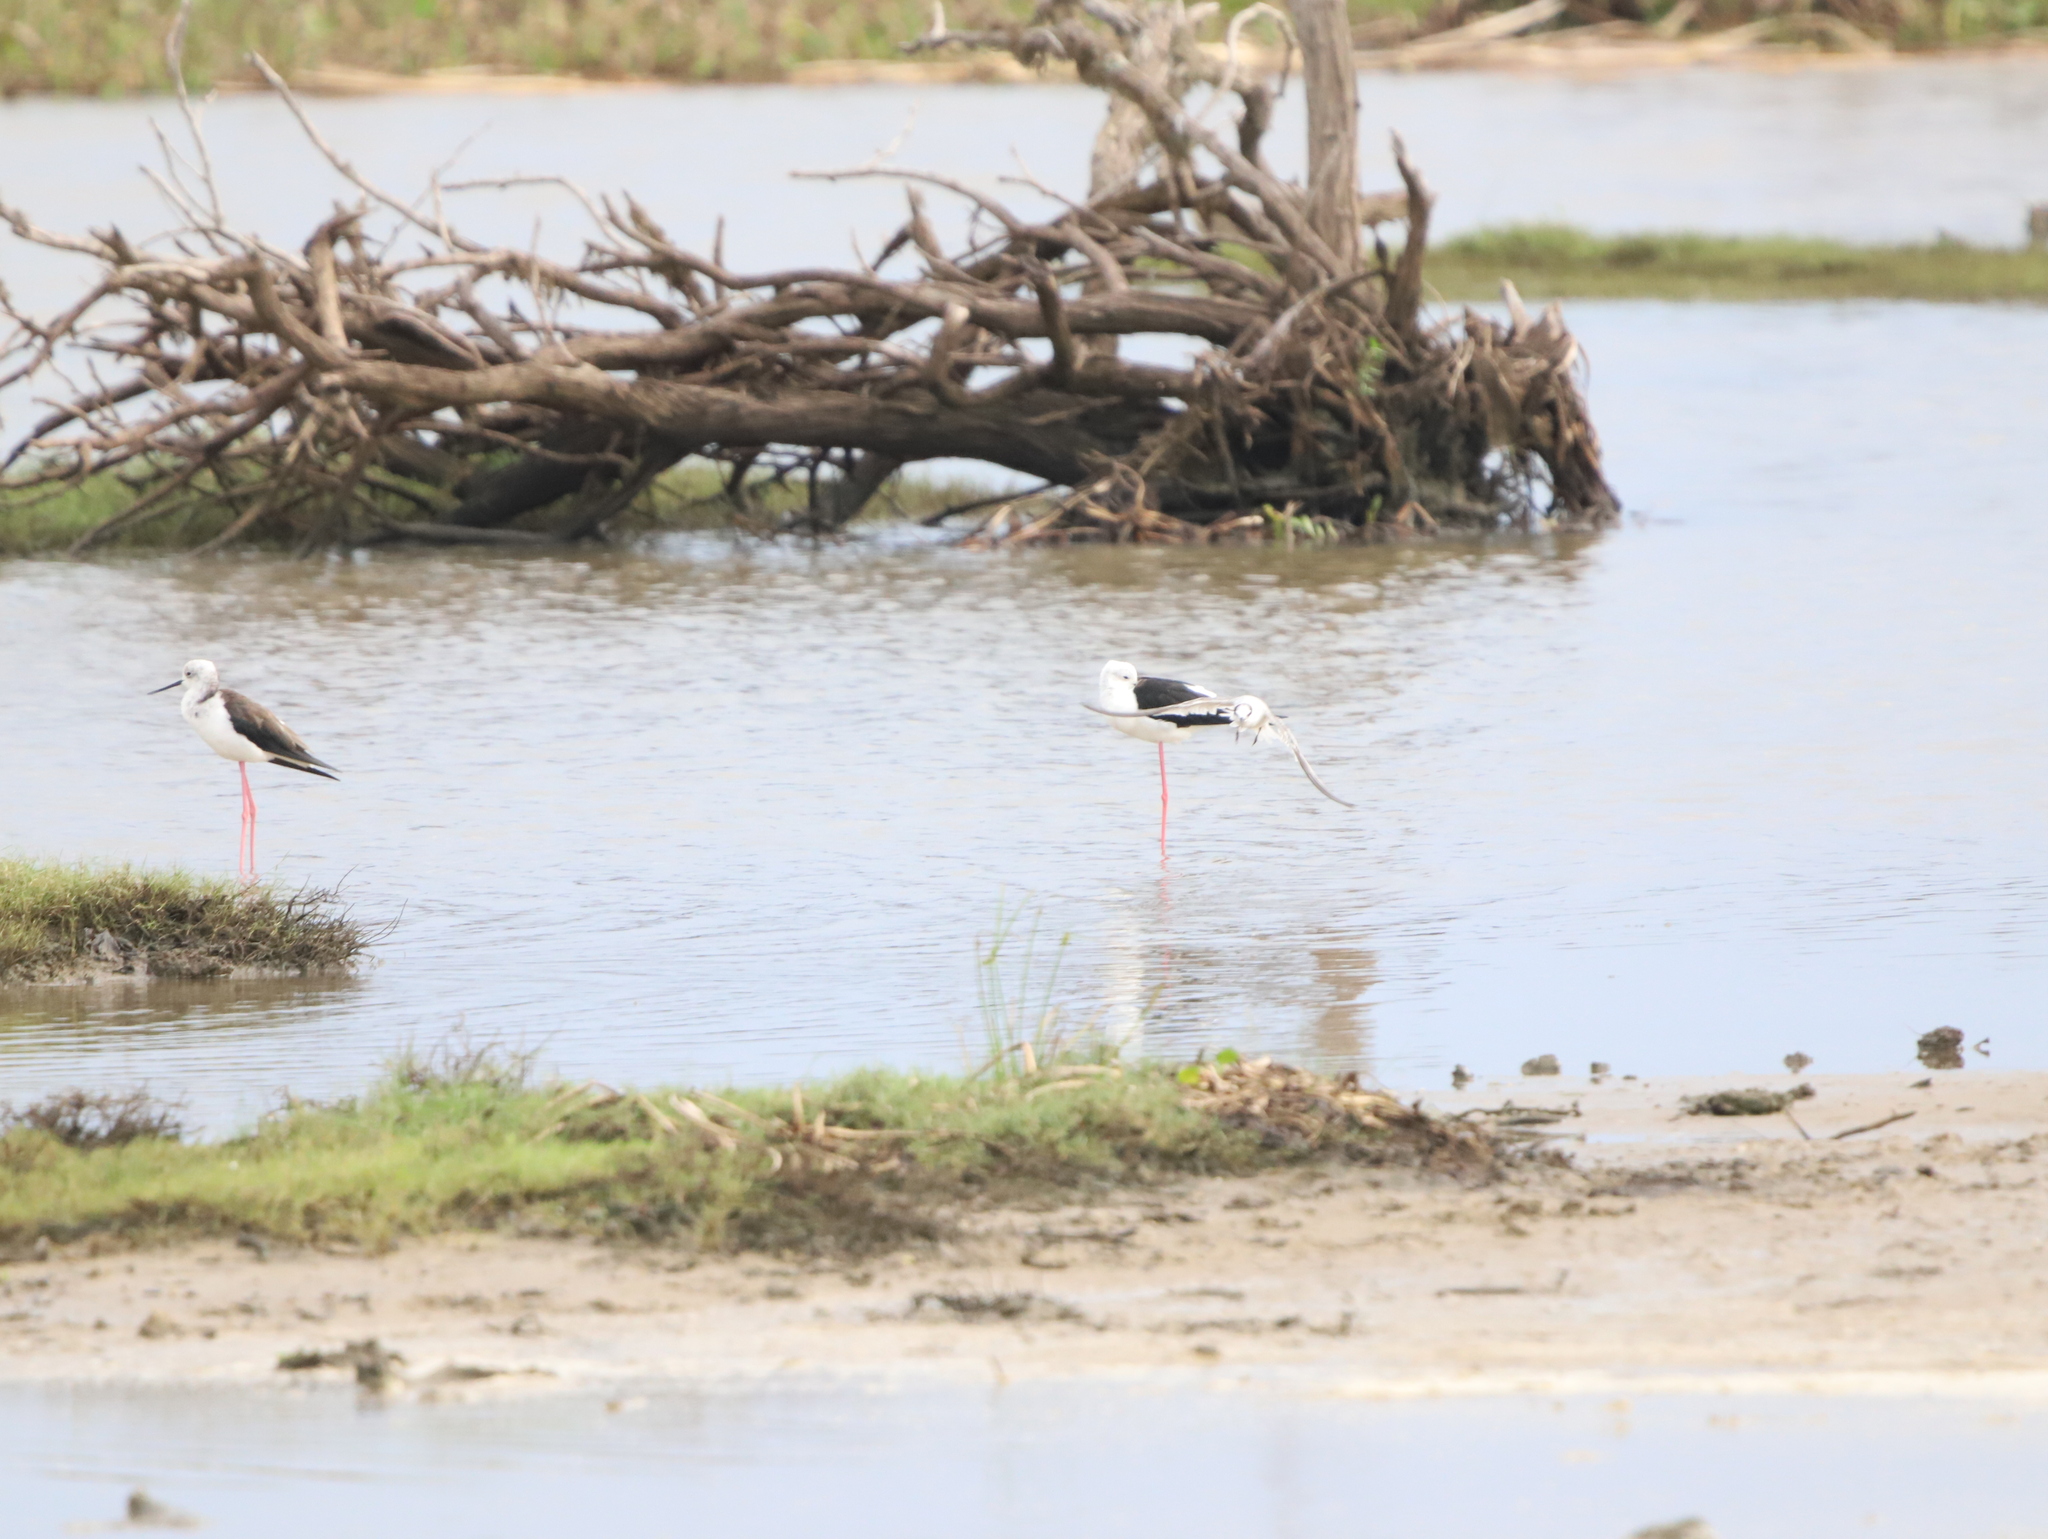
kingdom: Animalia
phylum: Chordata
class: Aves
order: Charadriiformes
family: Recurvirostridae
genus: Himantopus
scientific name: Himantopus himantopus
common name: Black-winged stilt
